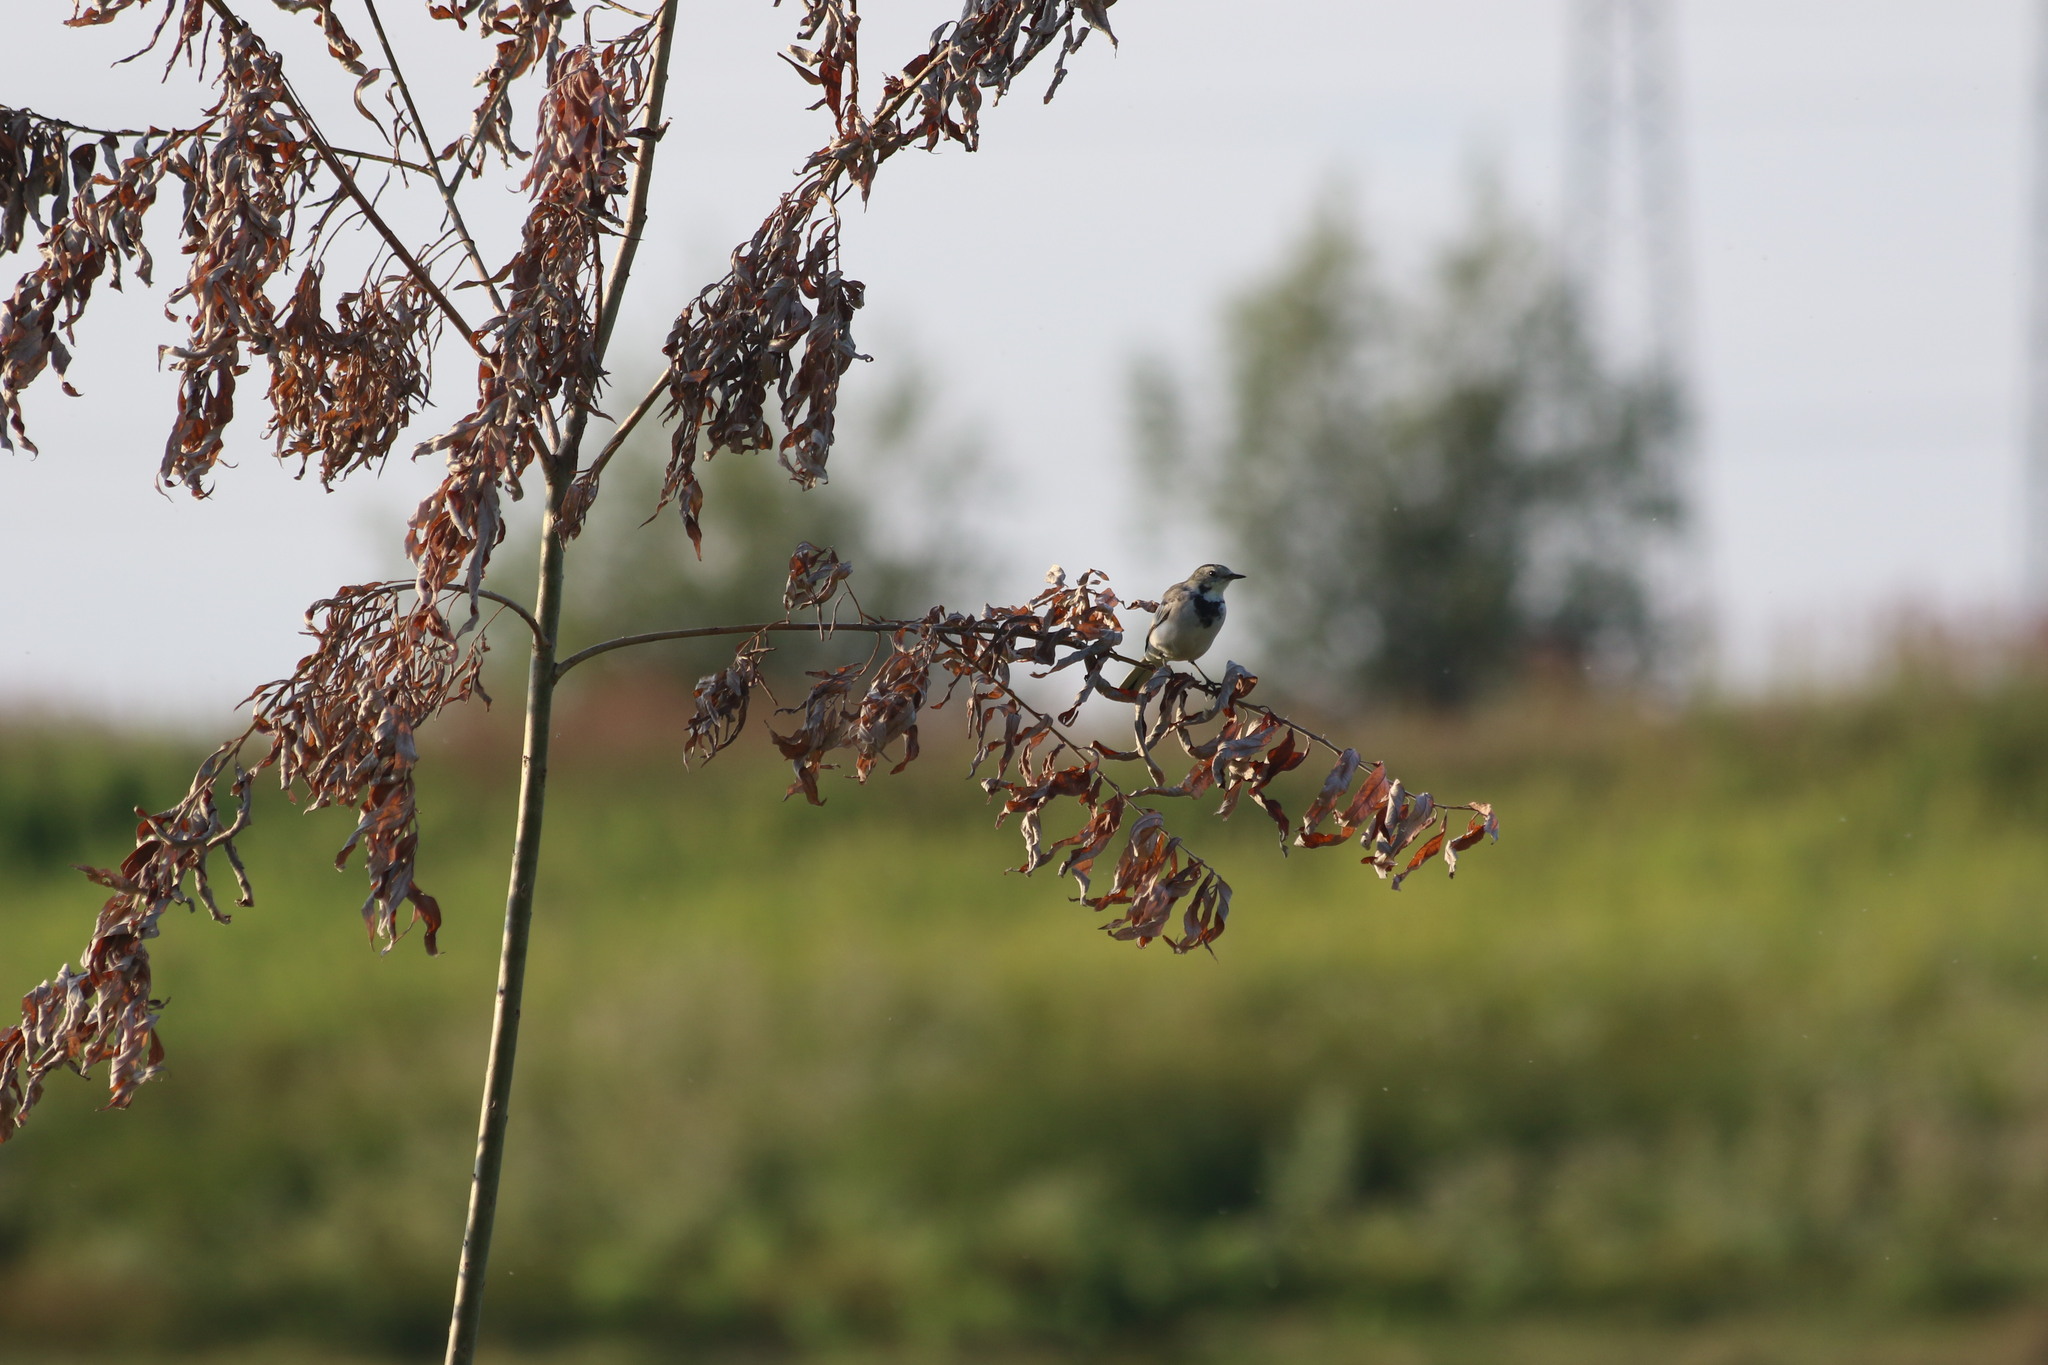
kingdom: Animalia
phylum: Chordata
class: Aves
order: Passeriformes
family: Motacillidae
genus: Motacilla
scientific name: Motacilla alba
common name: White wagtail
